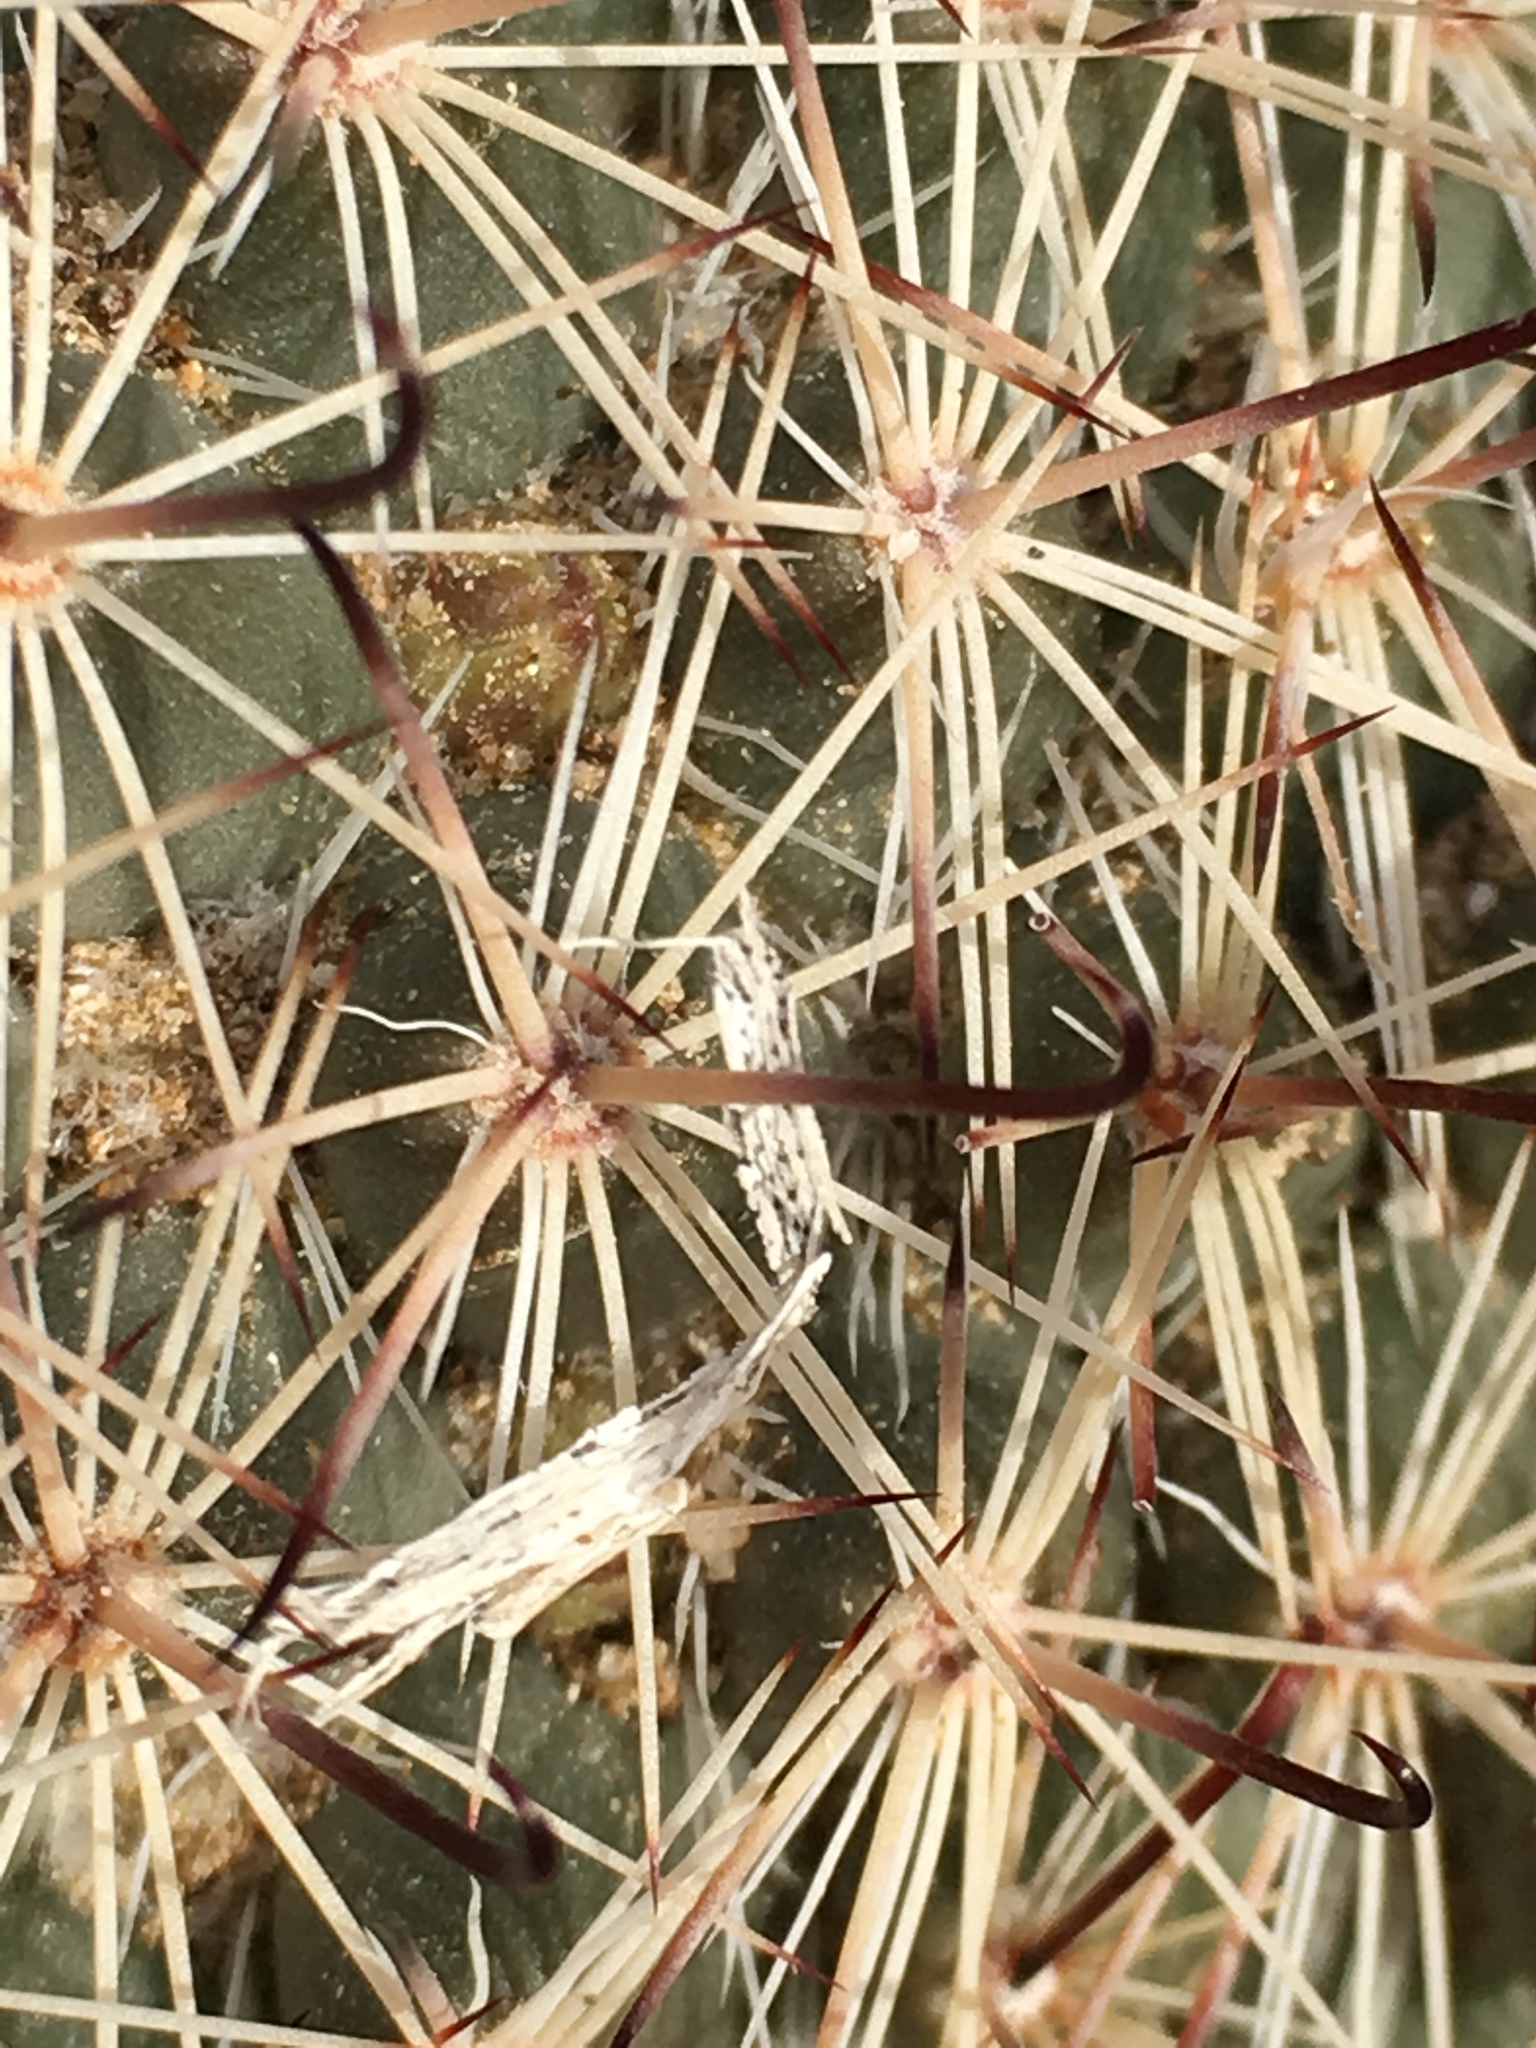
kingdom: Plantae
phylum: Tracheophyta
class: Magnoliopsida
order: Caryophyllales
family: Cactaceae
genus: Cochemiea
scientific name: Cochemiea dioica
